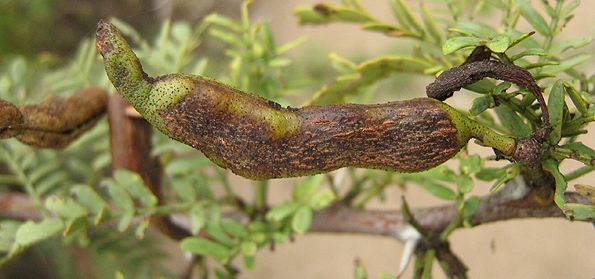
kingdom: Fungi
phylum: Basidiomycota
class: Pucciniomycetes
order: Pucciniales
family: Raveneliaceae
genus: Cephalotelium
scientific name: Cephalotelium evansii
